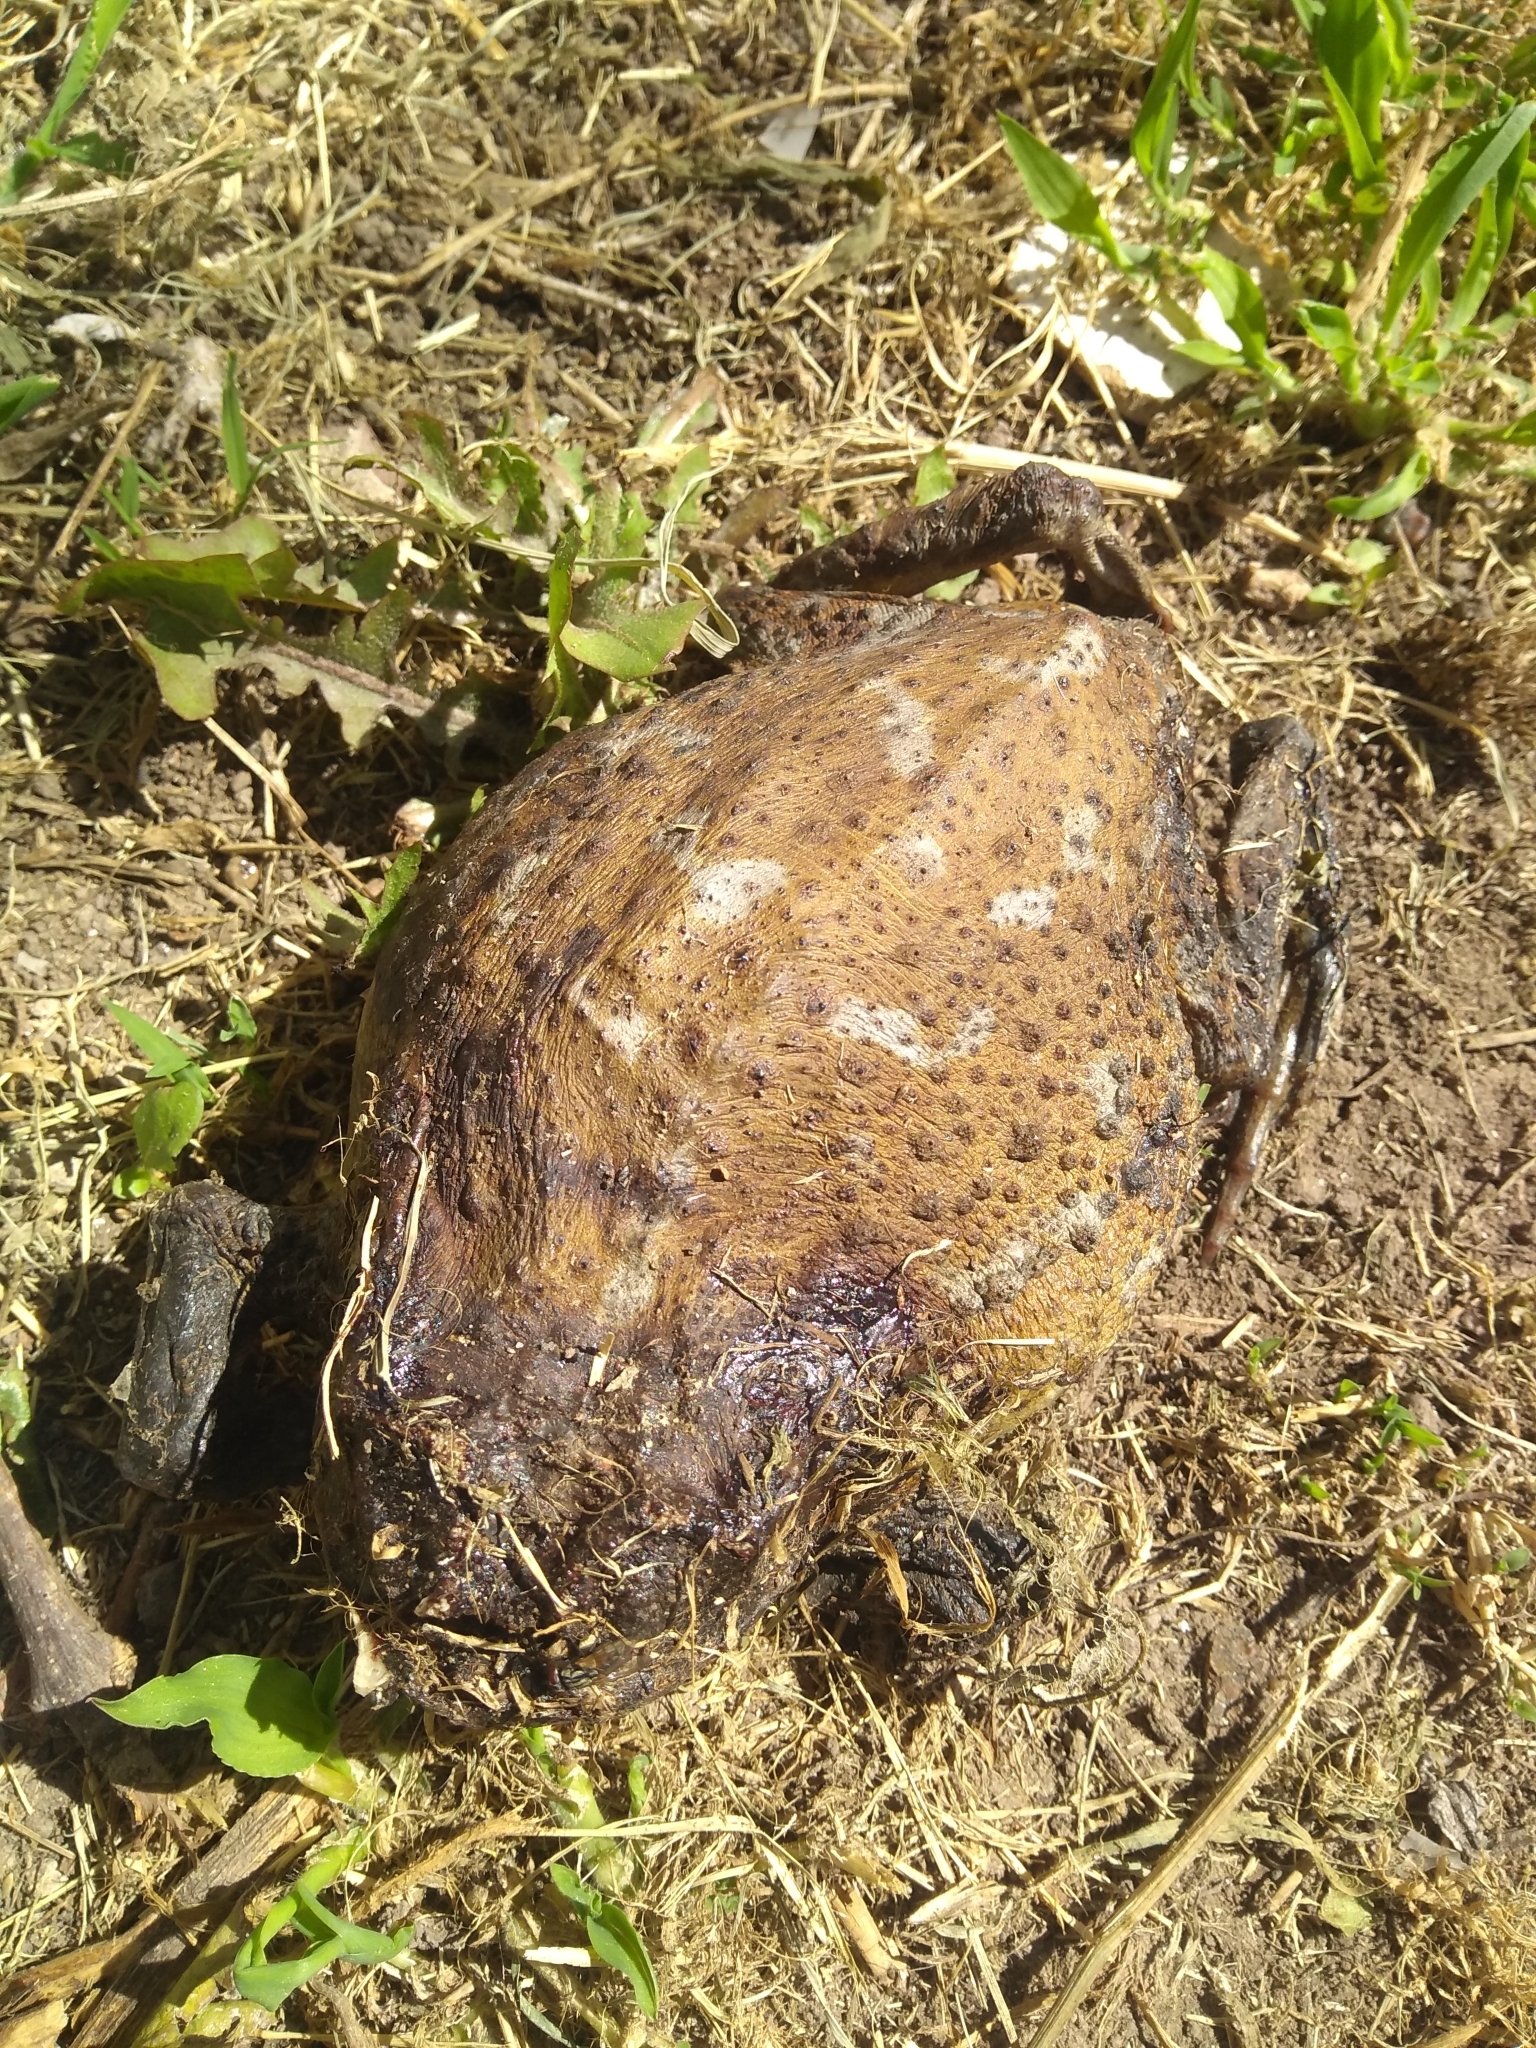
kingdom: Animalia
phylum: Chordata
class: Amphibia
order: Anura
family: Bufonidae
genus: Rhinella
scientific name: Rhinella arenarum
